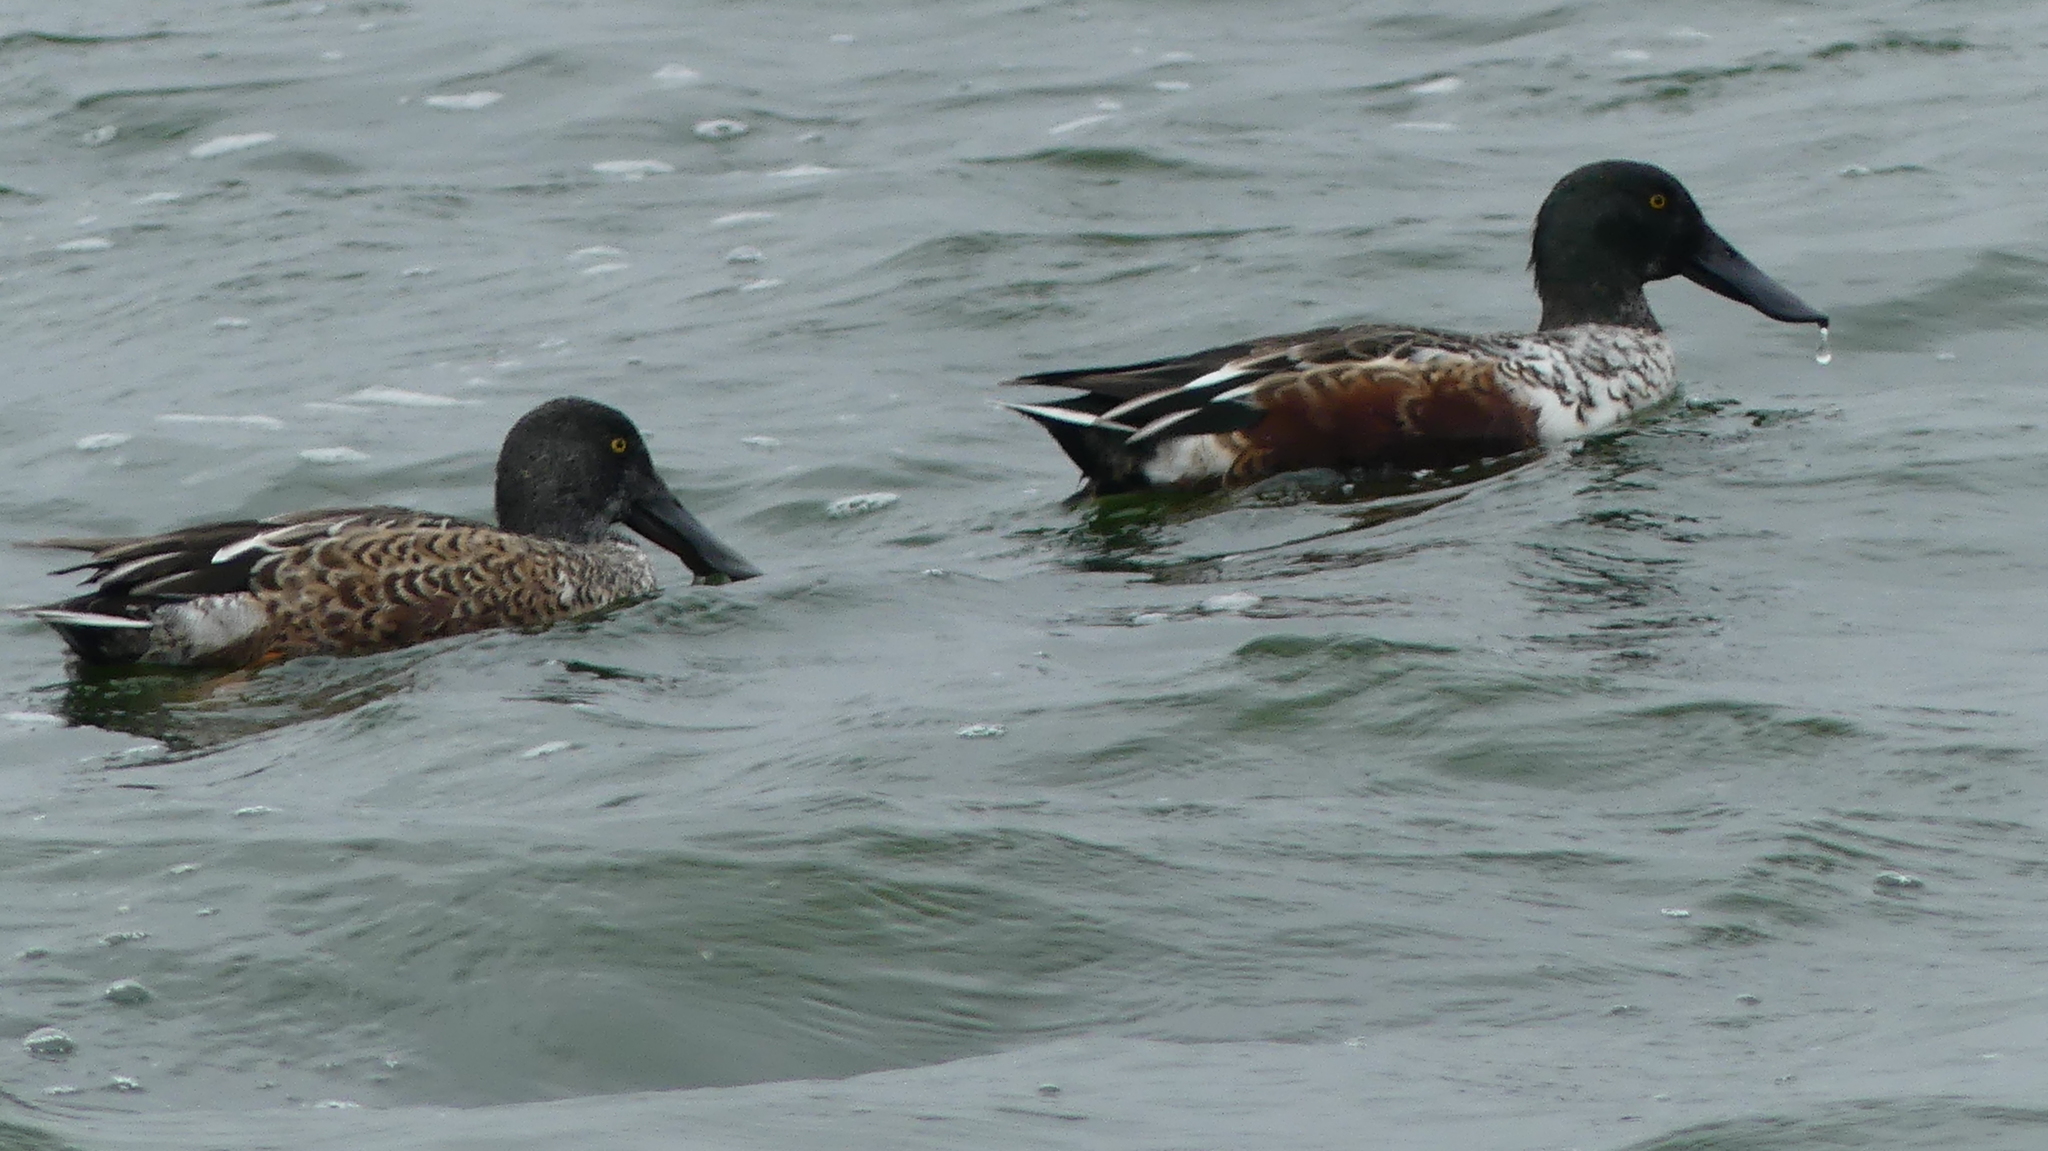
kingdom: Animalia
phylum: Chordata
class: Aves
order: Anseriformes
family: Anatidae
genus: Spatula
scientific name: Spatula clypeata
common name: Northern shoveler
